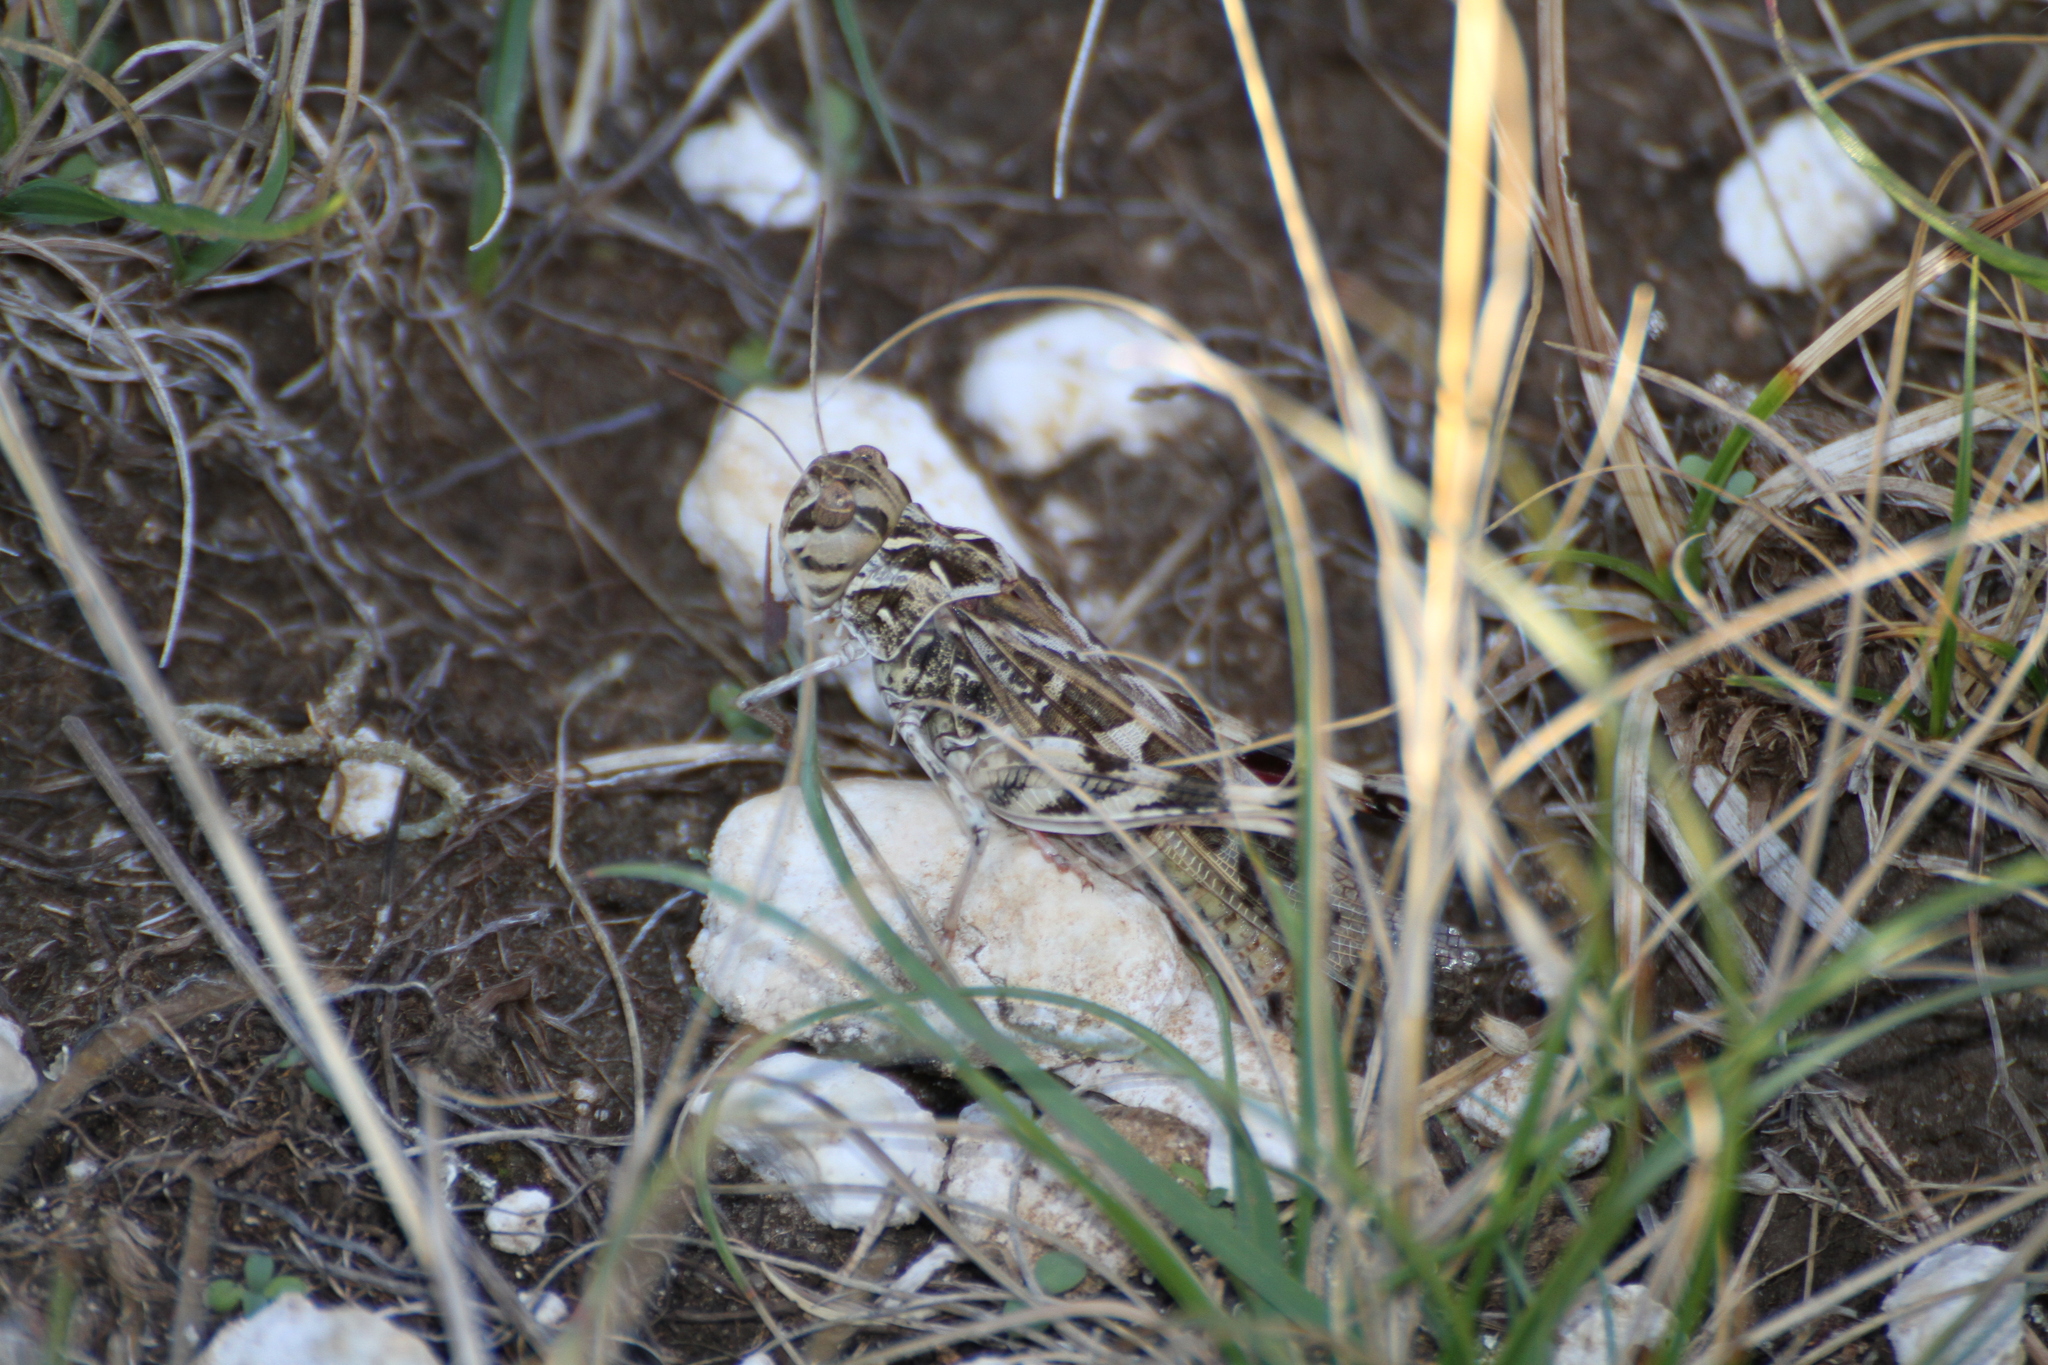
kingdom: Animalia
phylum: Arthropoda
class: Insecta
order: Orthoptera
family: Acrididae
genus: Oedaleus
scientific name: Oedaleus decorus
